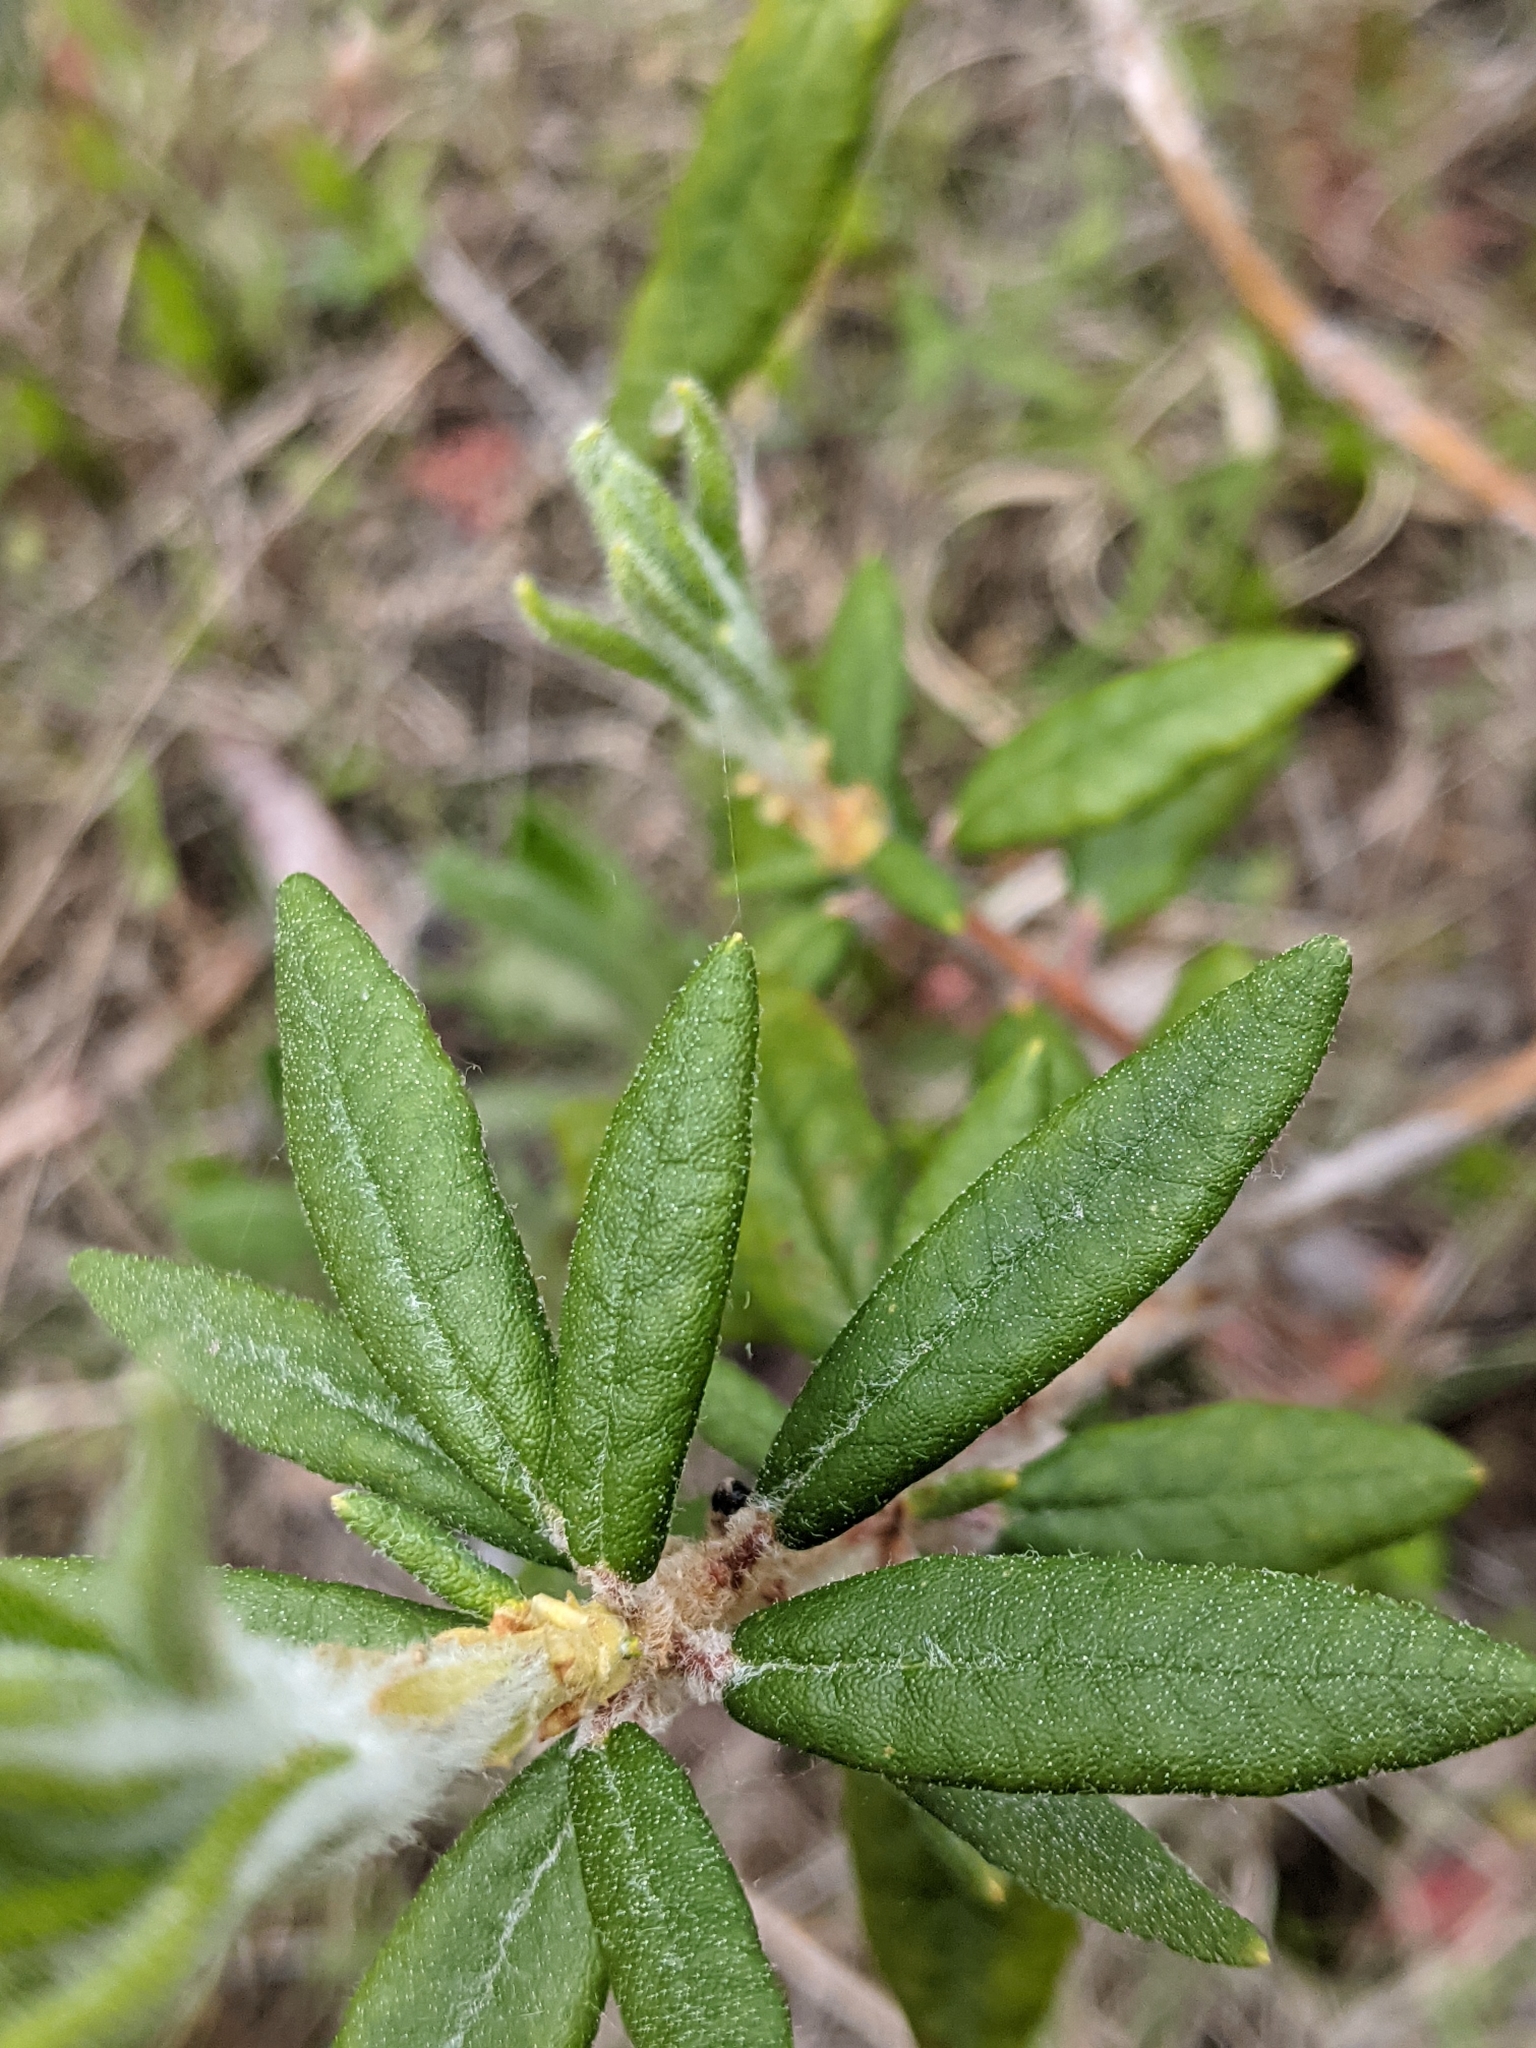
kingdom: Plantae
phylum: Tracheophyta
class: Magnoliopsida
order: Ericales
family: Ericaceae
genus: Rhododendron
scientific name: Rhododendron groenlandicum
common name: Bog labrador tea
